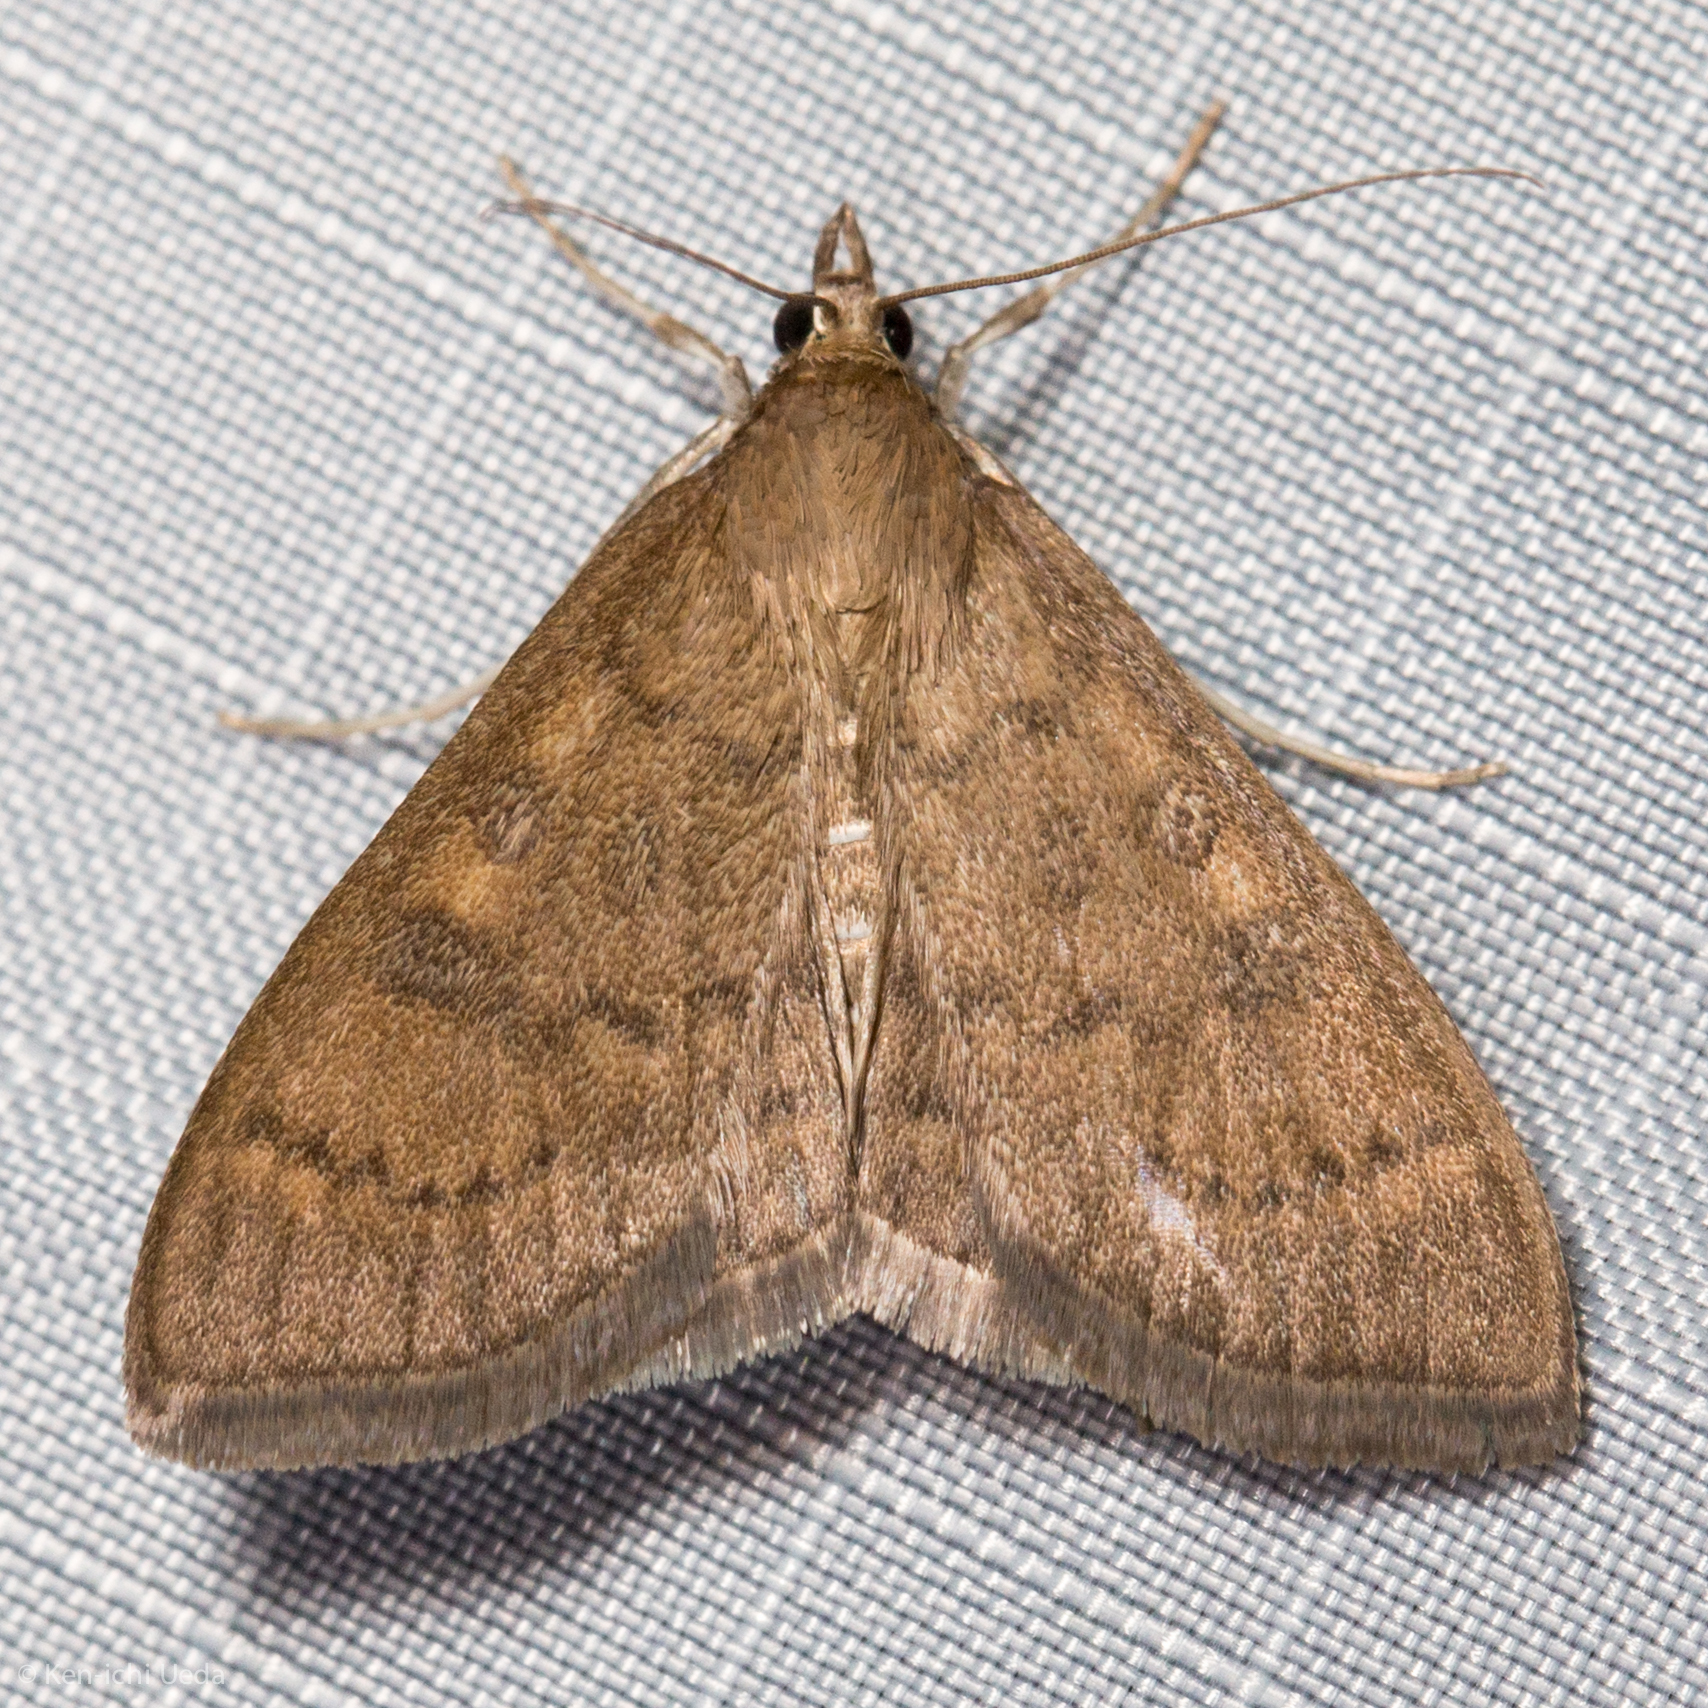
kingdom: Animalia
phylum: Arthropoda
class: Insecta
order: Lepidoptera
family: Crambidae
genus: Mecyna
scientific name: Mecyna mustelinalis
